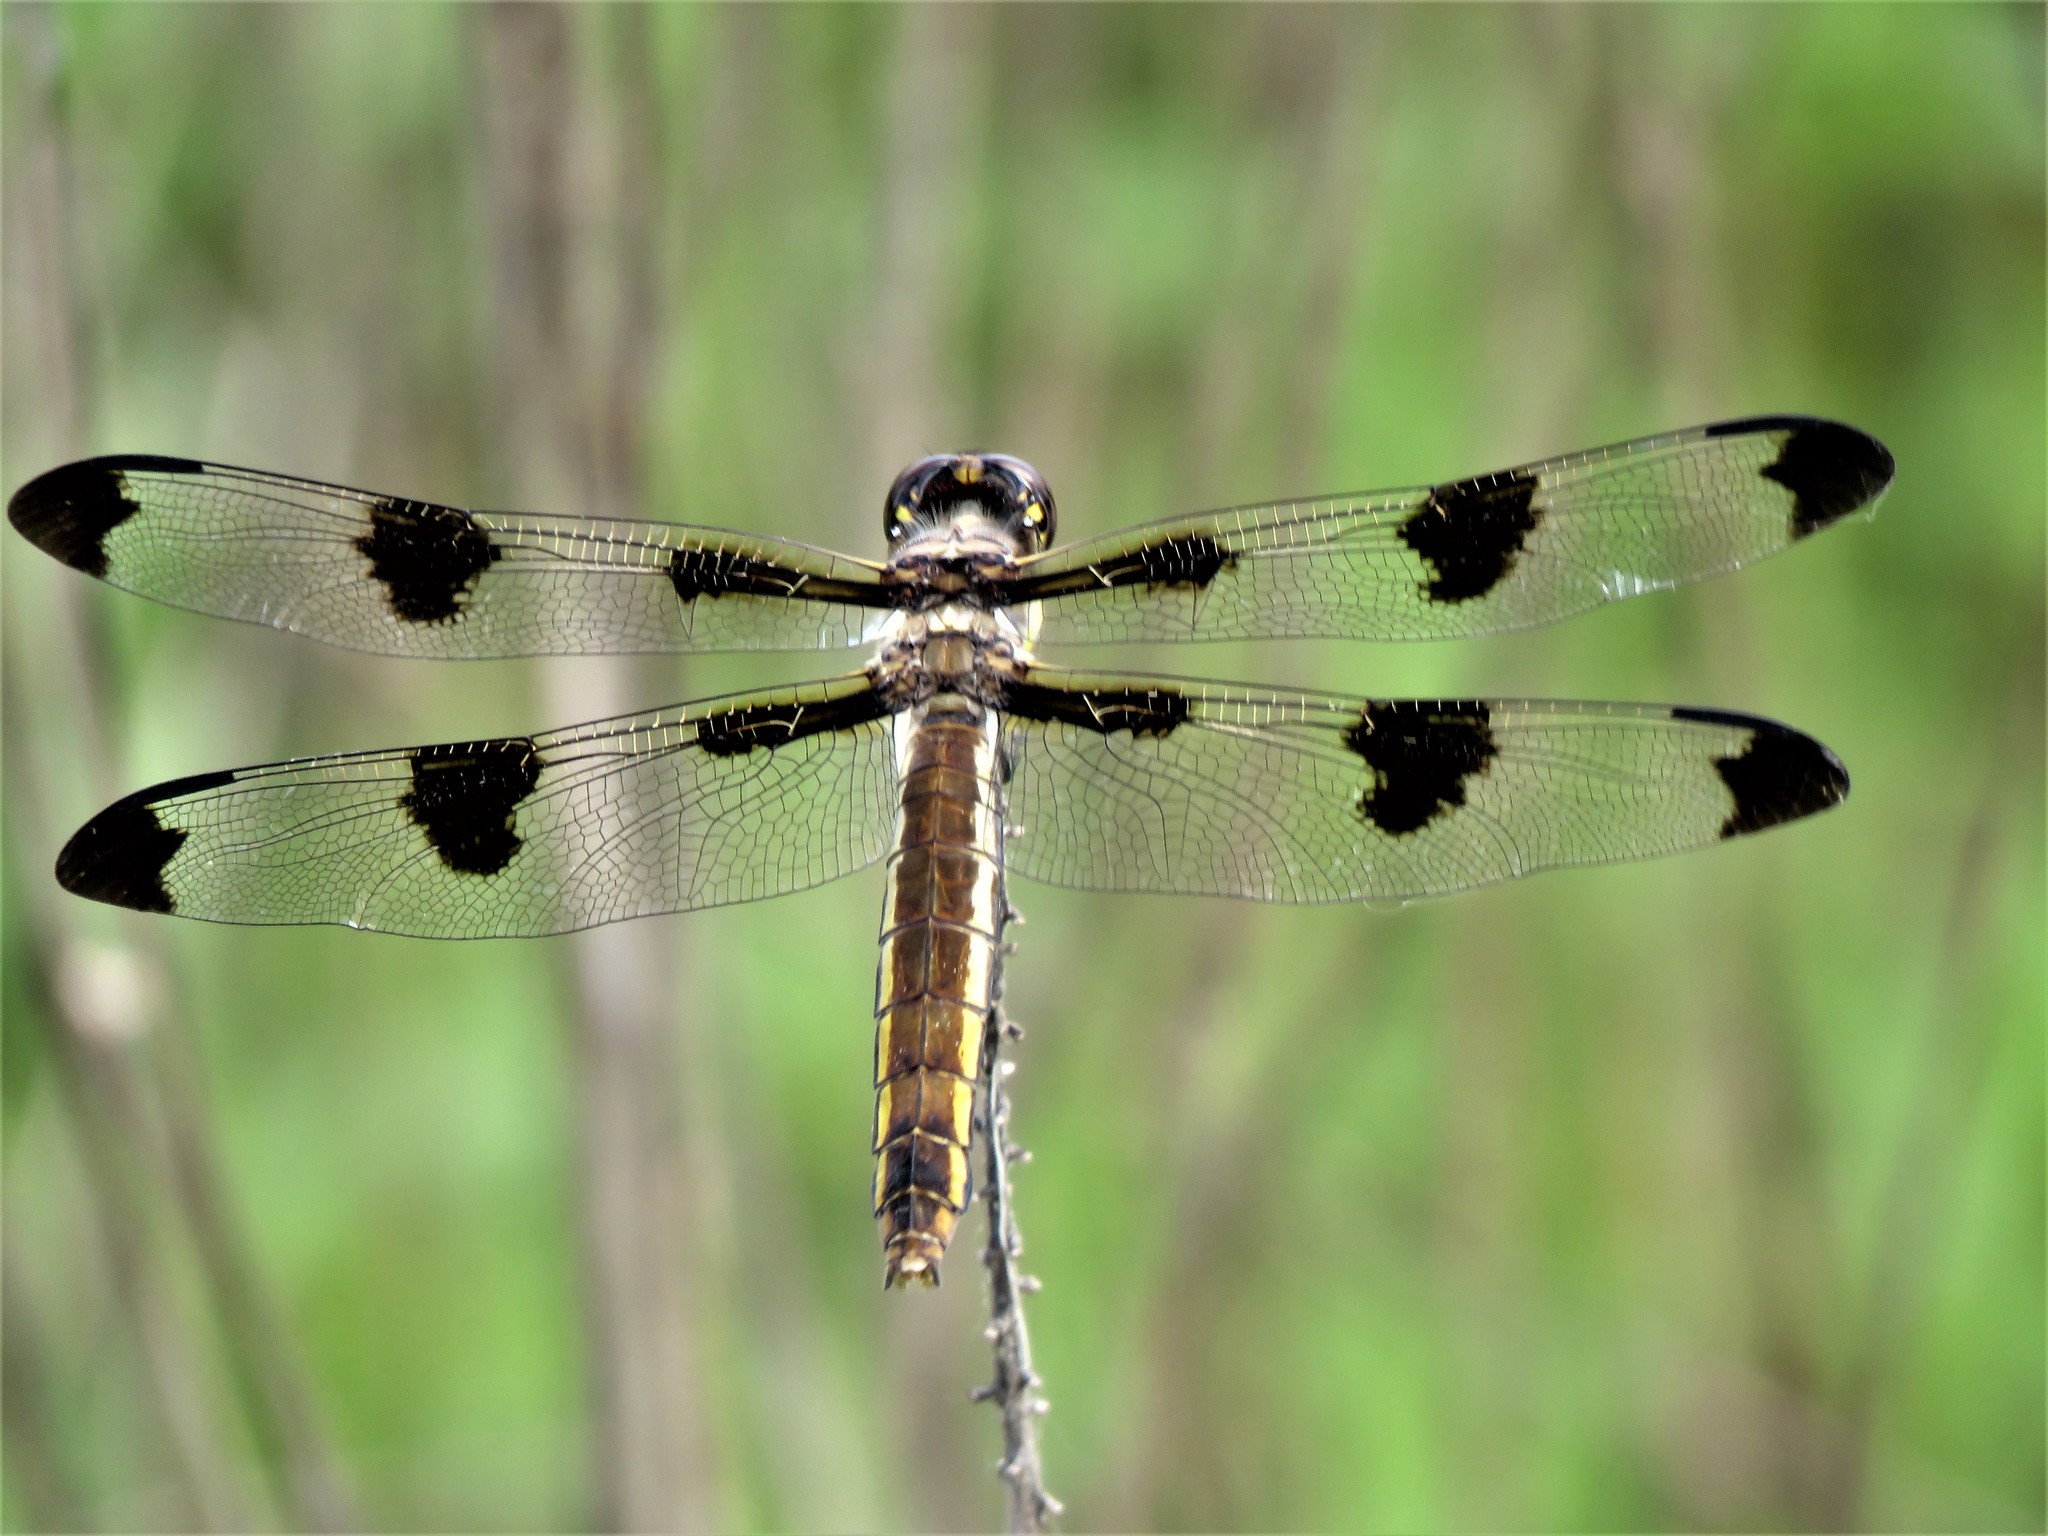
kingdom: Animalia
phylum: Arthropoda
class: Insecta
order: Odonata
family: Libellulidae
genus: Libellula
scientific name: Libellula pulchella
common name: Twelve-spotted skimmer
